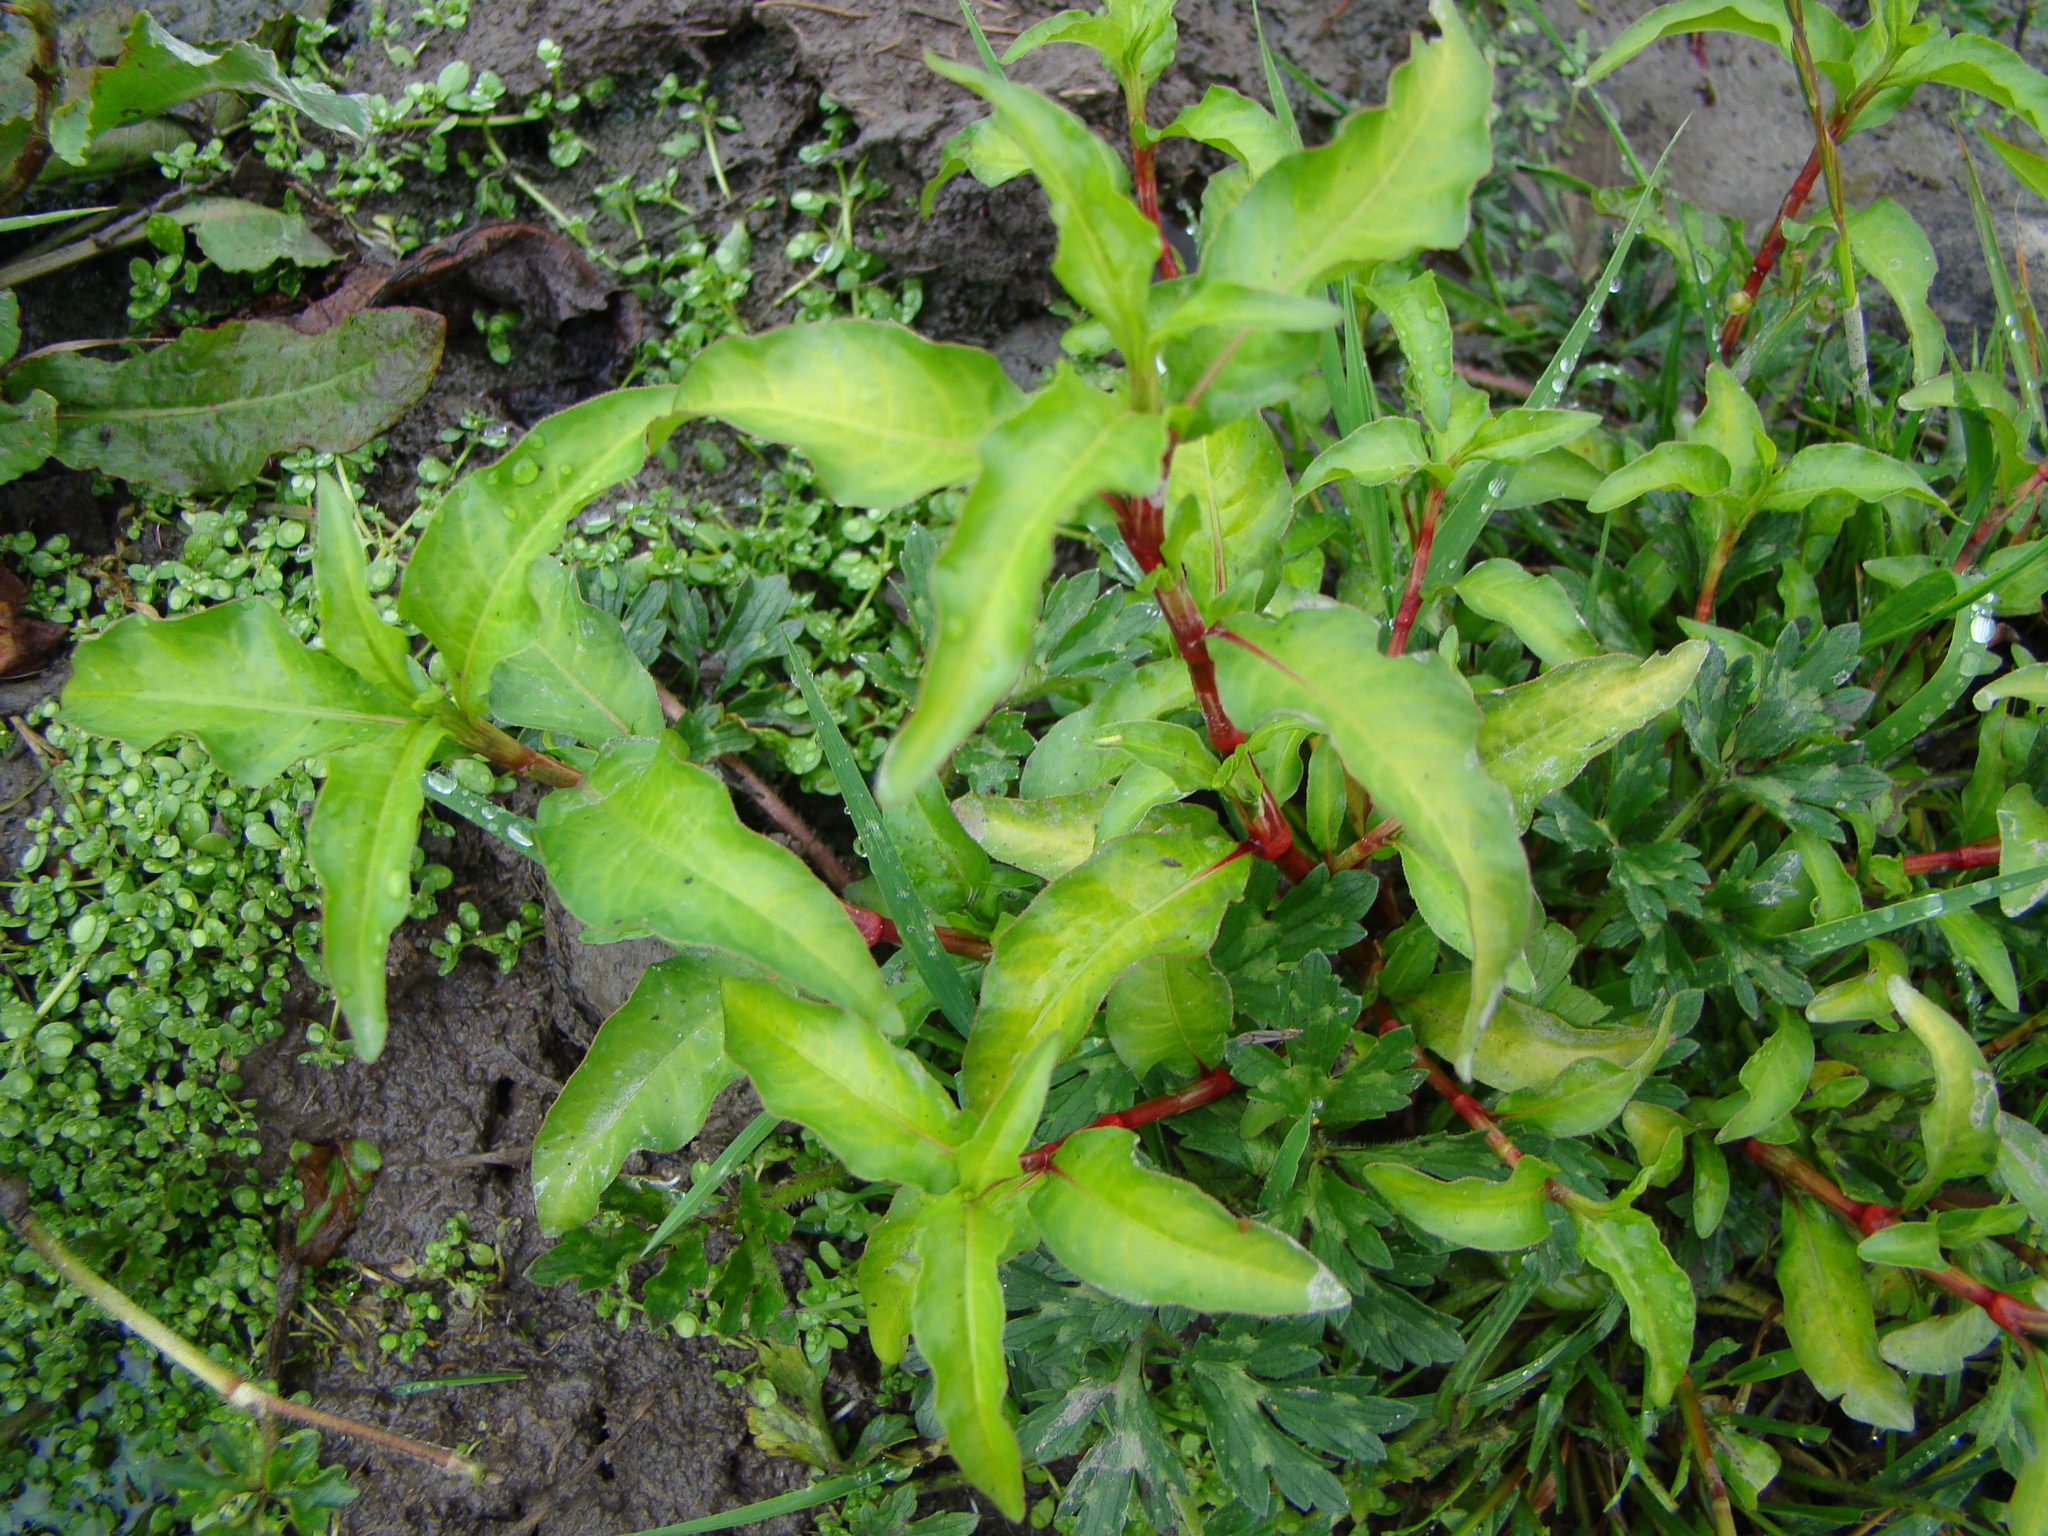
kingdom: Plantae
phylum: Tracheophyta
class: Magnoliopsida
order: Caryophyllales
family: Polygonaceae
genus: Persicaria
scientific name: Persicaria hydropiper
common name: Water-pepper
